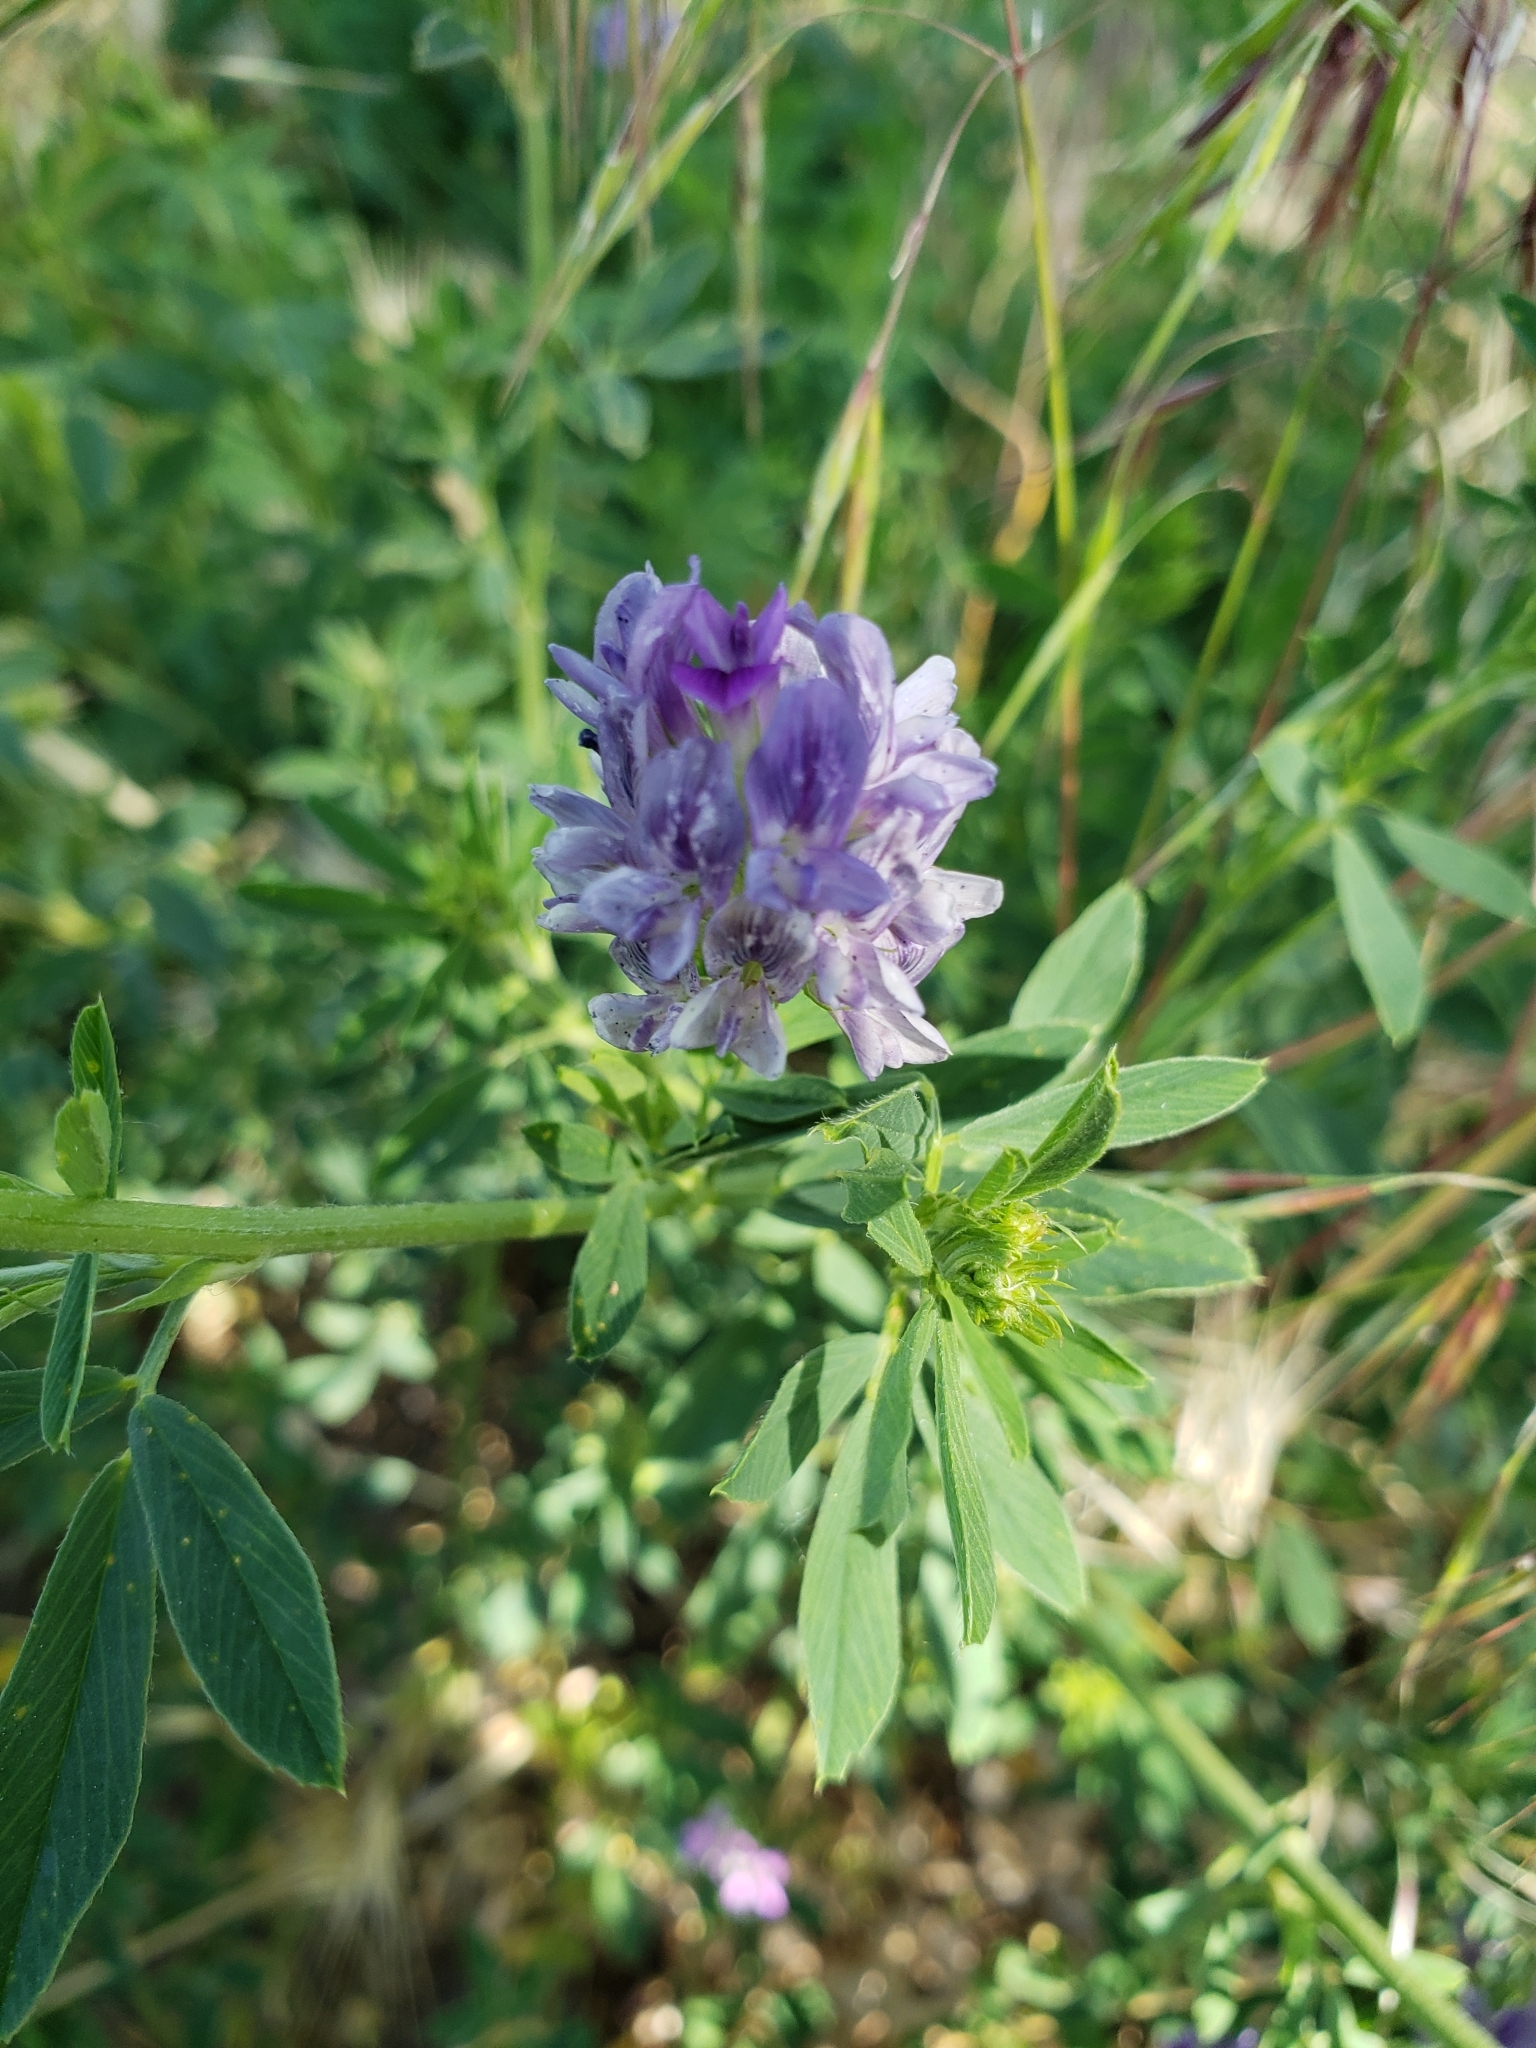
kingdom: Plantae
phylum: Tracheophyta
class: Magnoliopsida
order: Fabales
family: Fabaceae
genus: Medicago
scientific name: Medicago sativa
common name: Alfalfa
